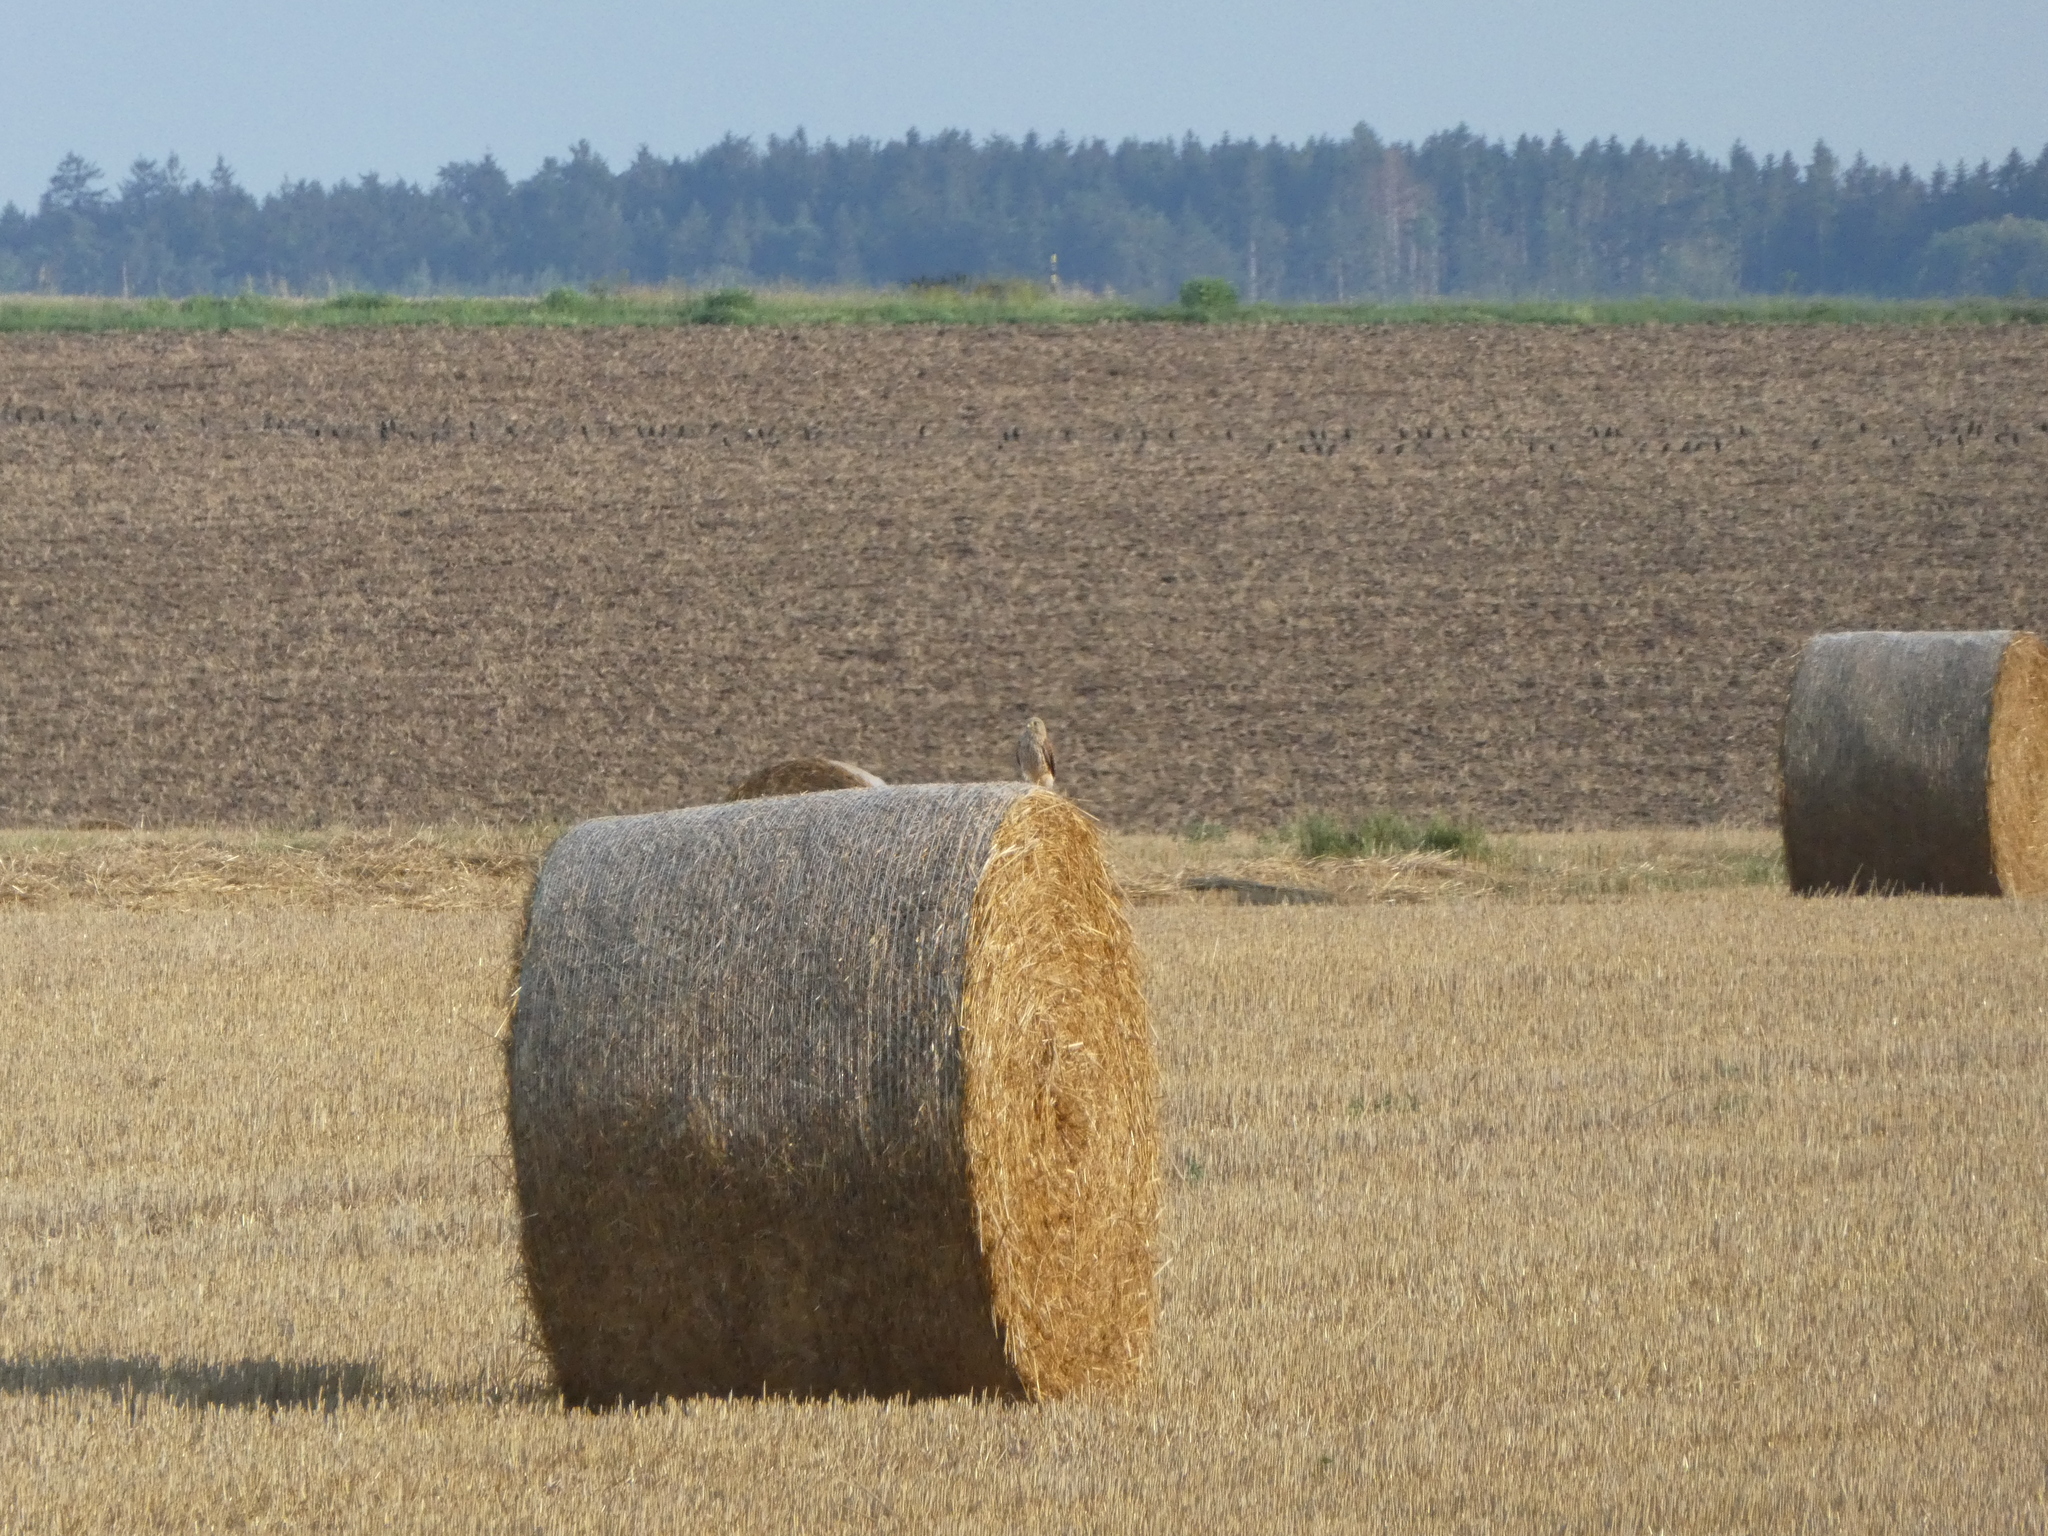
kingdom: Animalia
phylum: Chordata
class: Aves
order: Falconiformes
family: Falconidae
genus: Falco
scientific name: Falco tinnunculus
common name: Common kestrel
